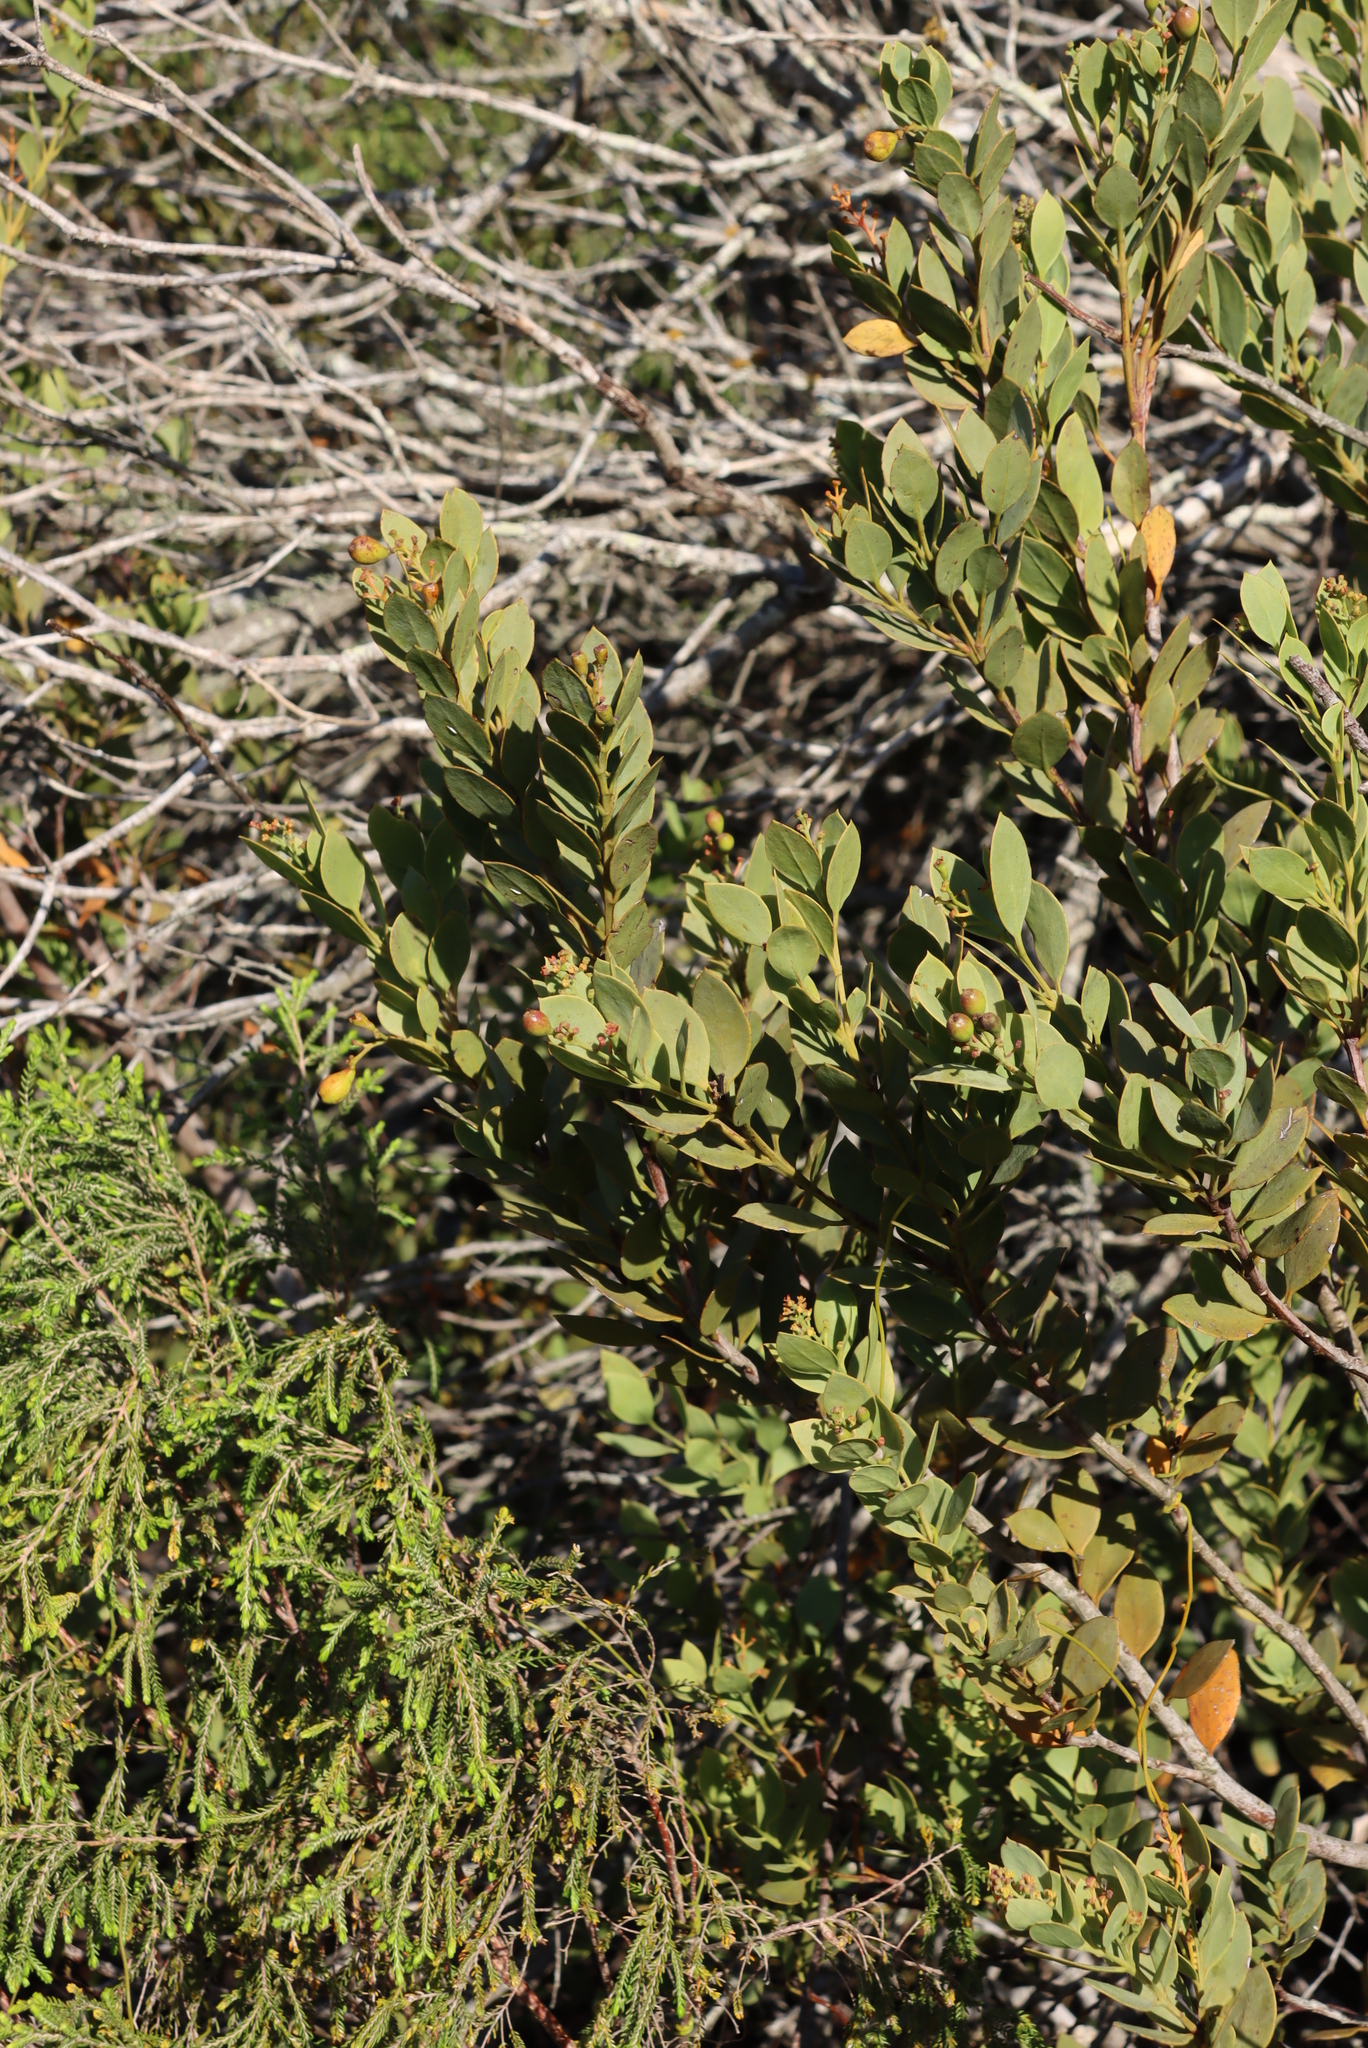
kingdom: Plantae
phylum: Tracheophyta
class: Magnoliopsida
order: Santalales
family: Santalaceae
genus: Osyris
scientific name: Osyris compressa
